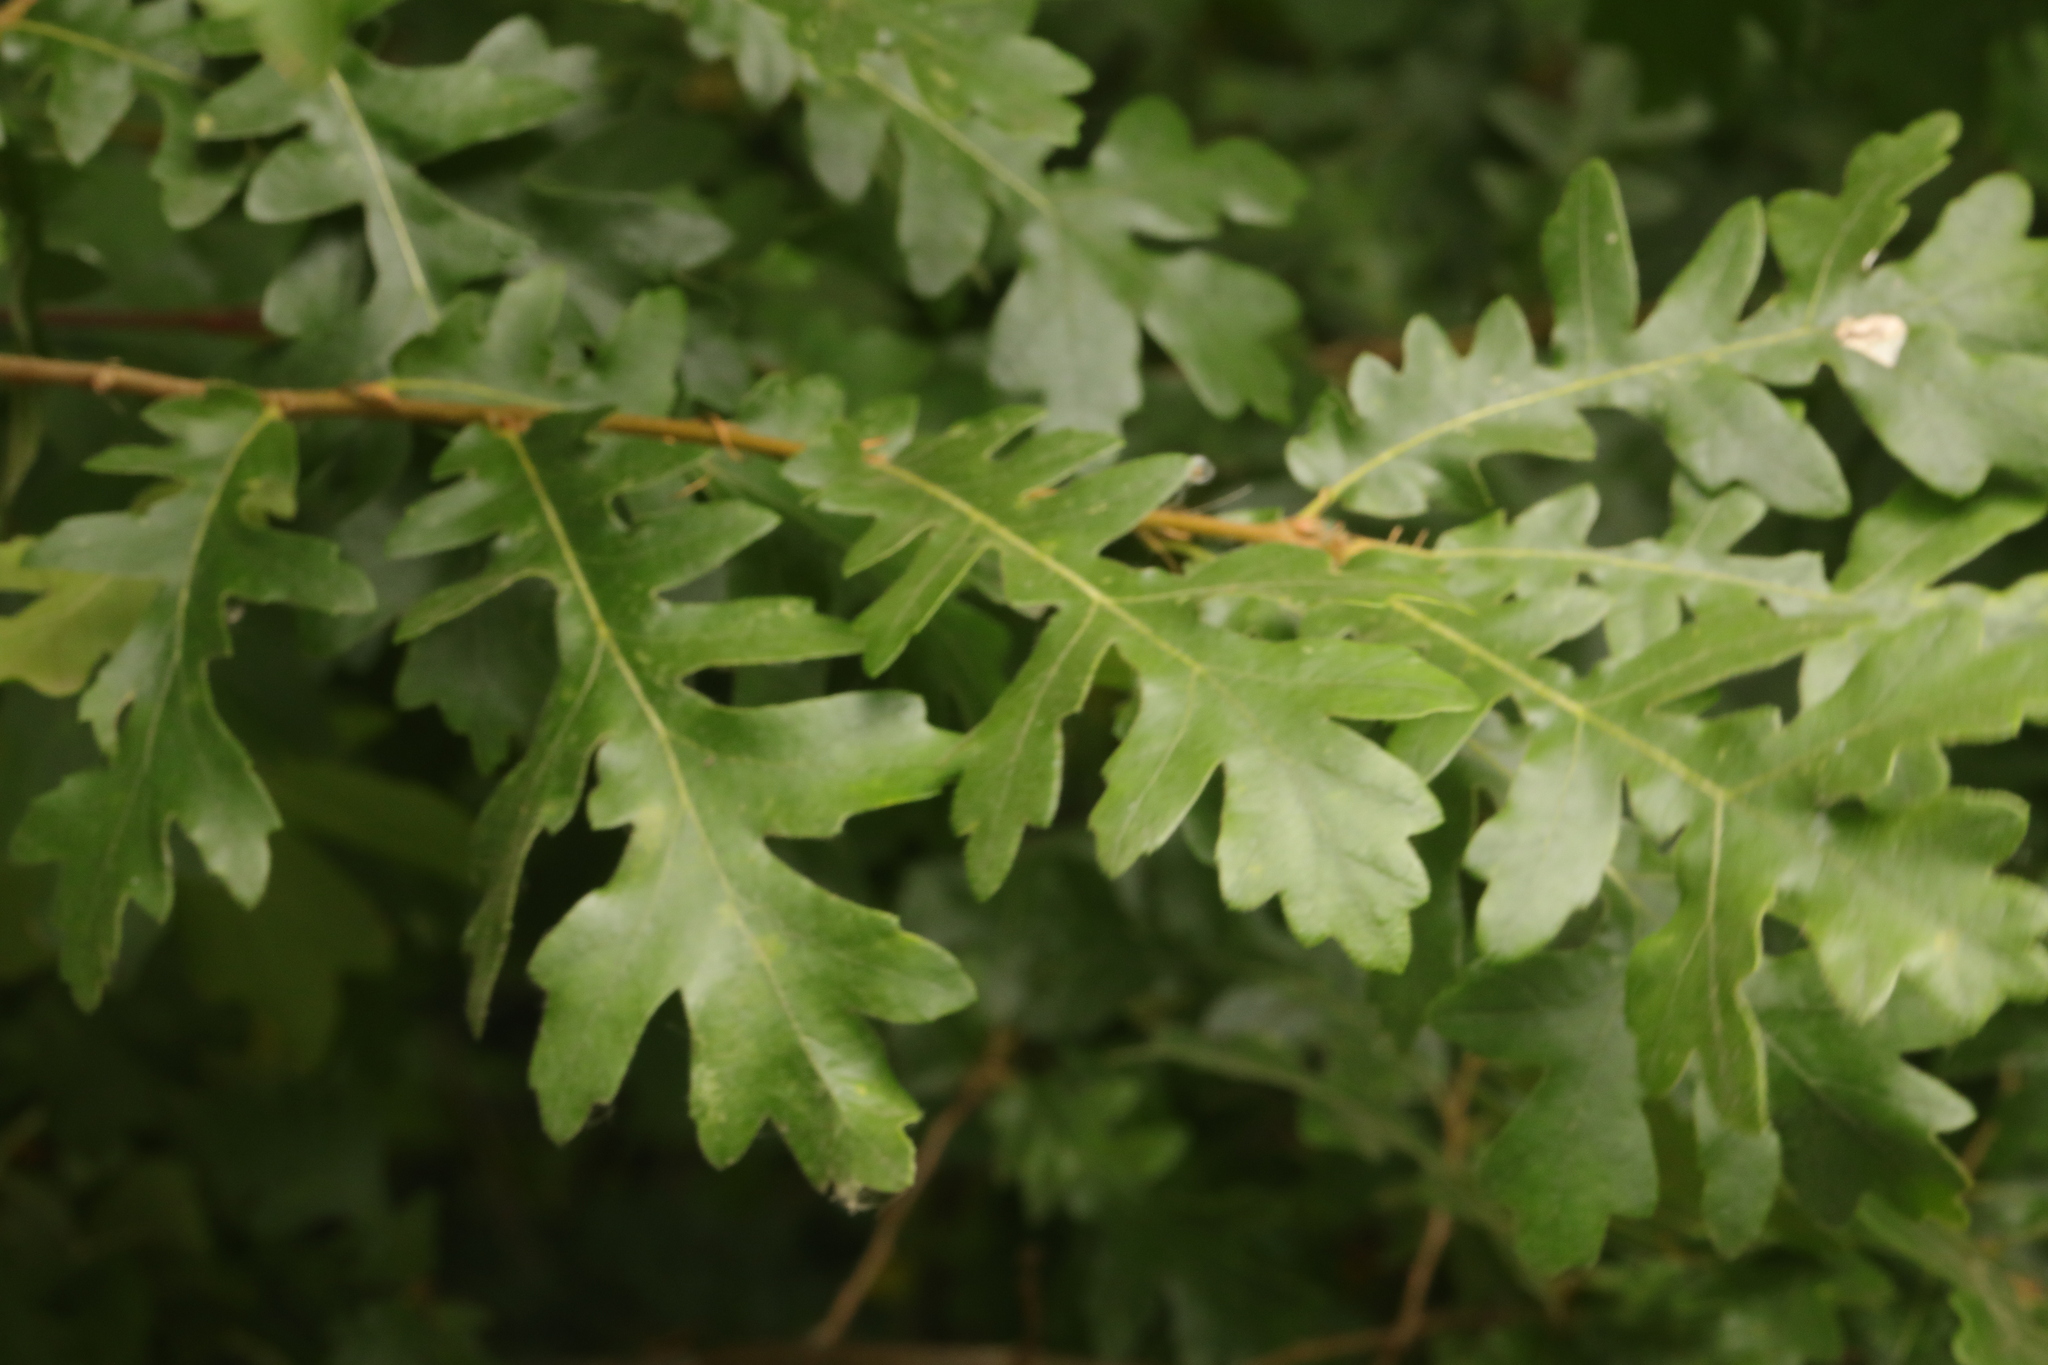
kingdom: Plantae
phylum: Tracheophyta
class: Magnoliopsida
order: Fagales
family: Fagaceae
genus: Quercus
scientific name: Quercus cerris
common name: Turkey oak
